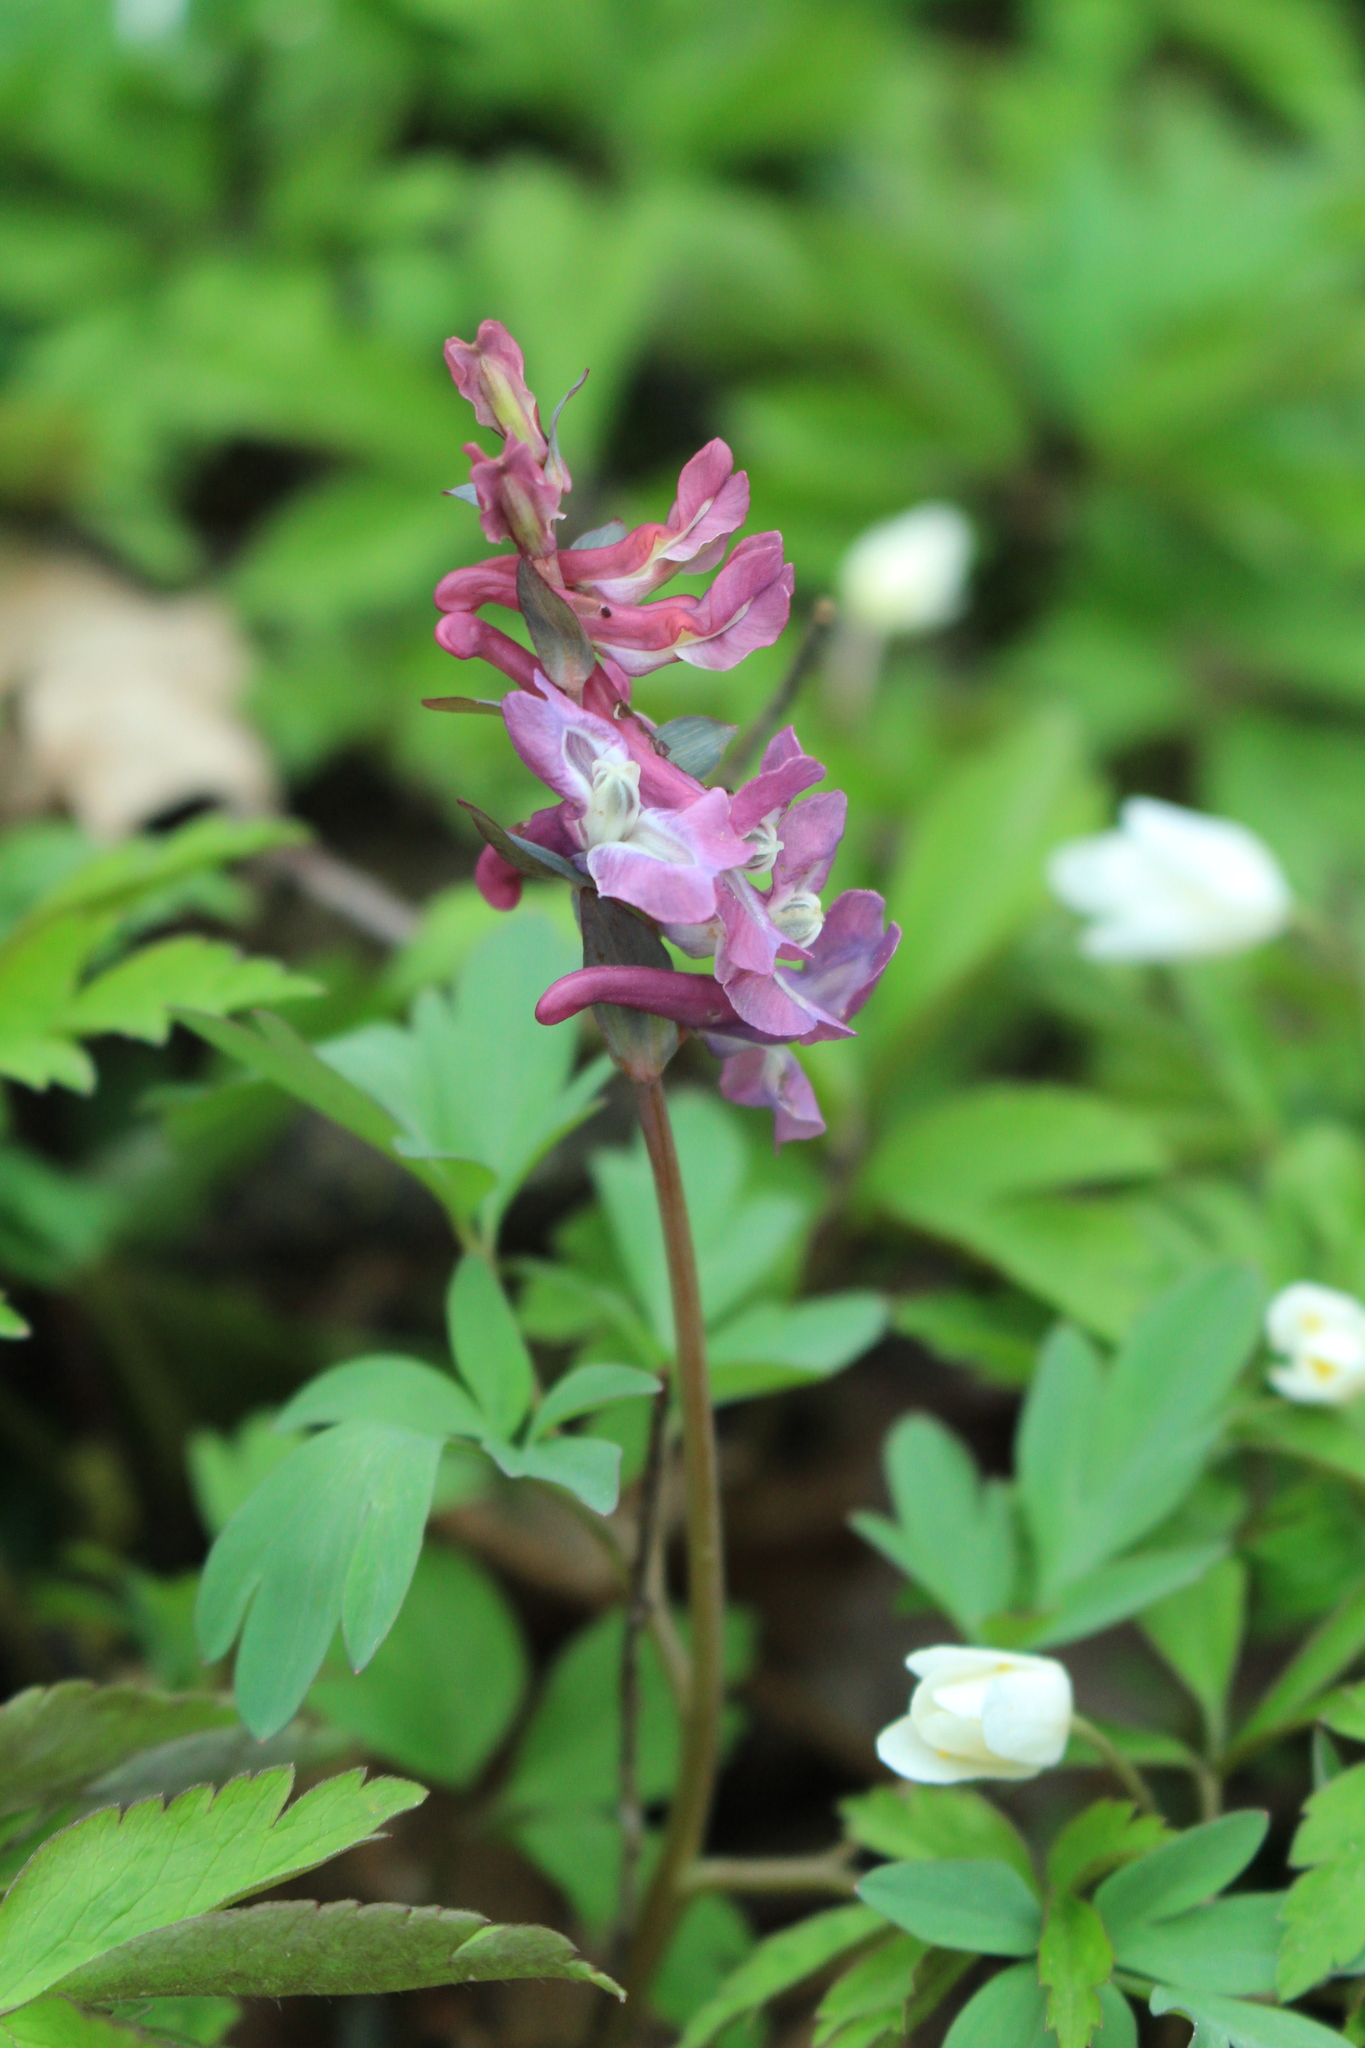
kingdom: Plantae
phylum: Tracheophyta
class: Magnoliopsida
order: Ranunculales
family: Papaveraceae
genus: Corydalis
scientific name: Corydalis cava
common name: Hollowroot
